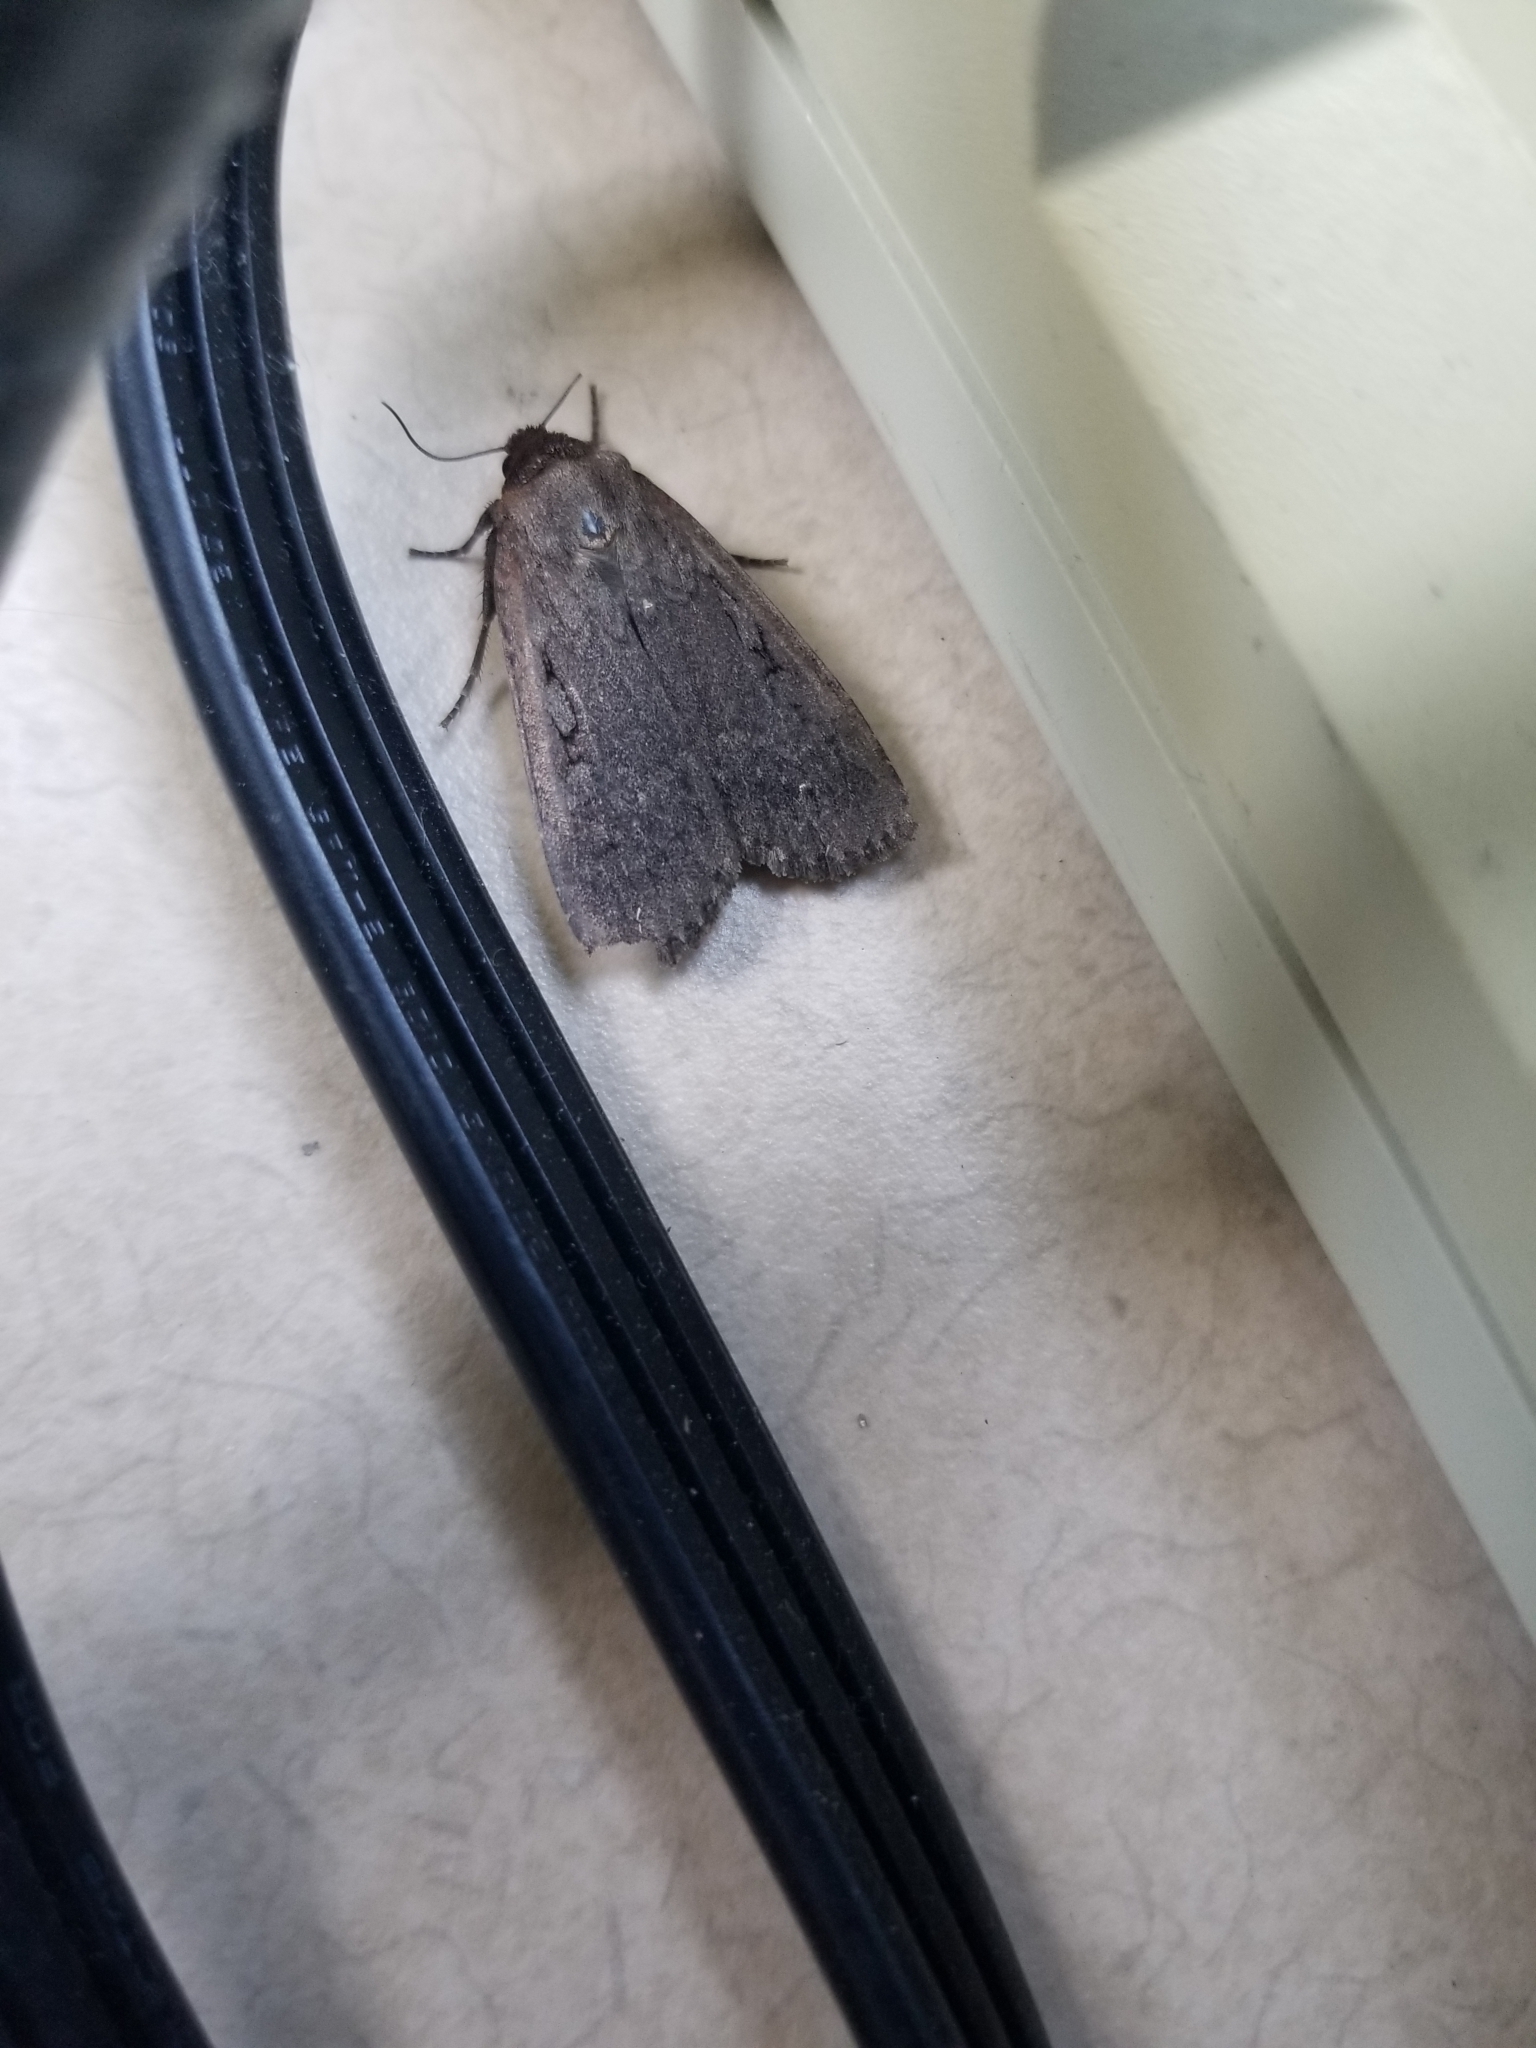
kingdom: Animalia
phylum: Arthropoda
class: Insecta
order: Lepidoptera
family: Noctuidae
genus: Spaelotis
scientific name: Spaelotis clandestina
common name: Clandestine dart
